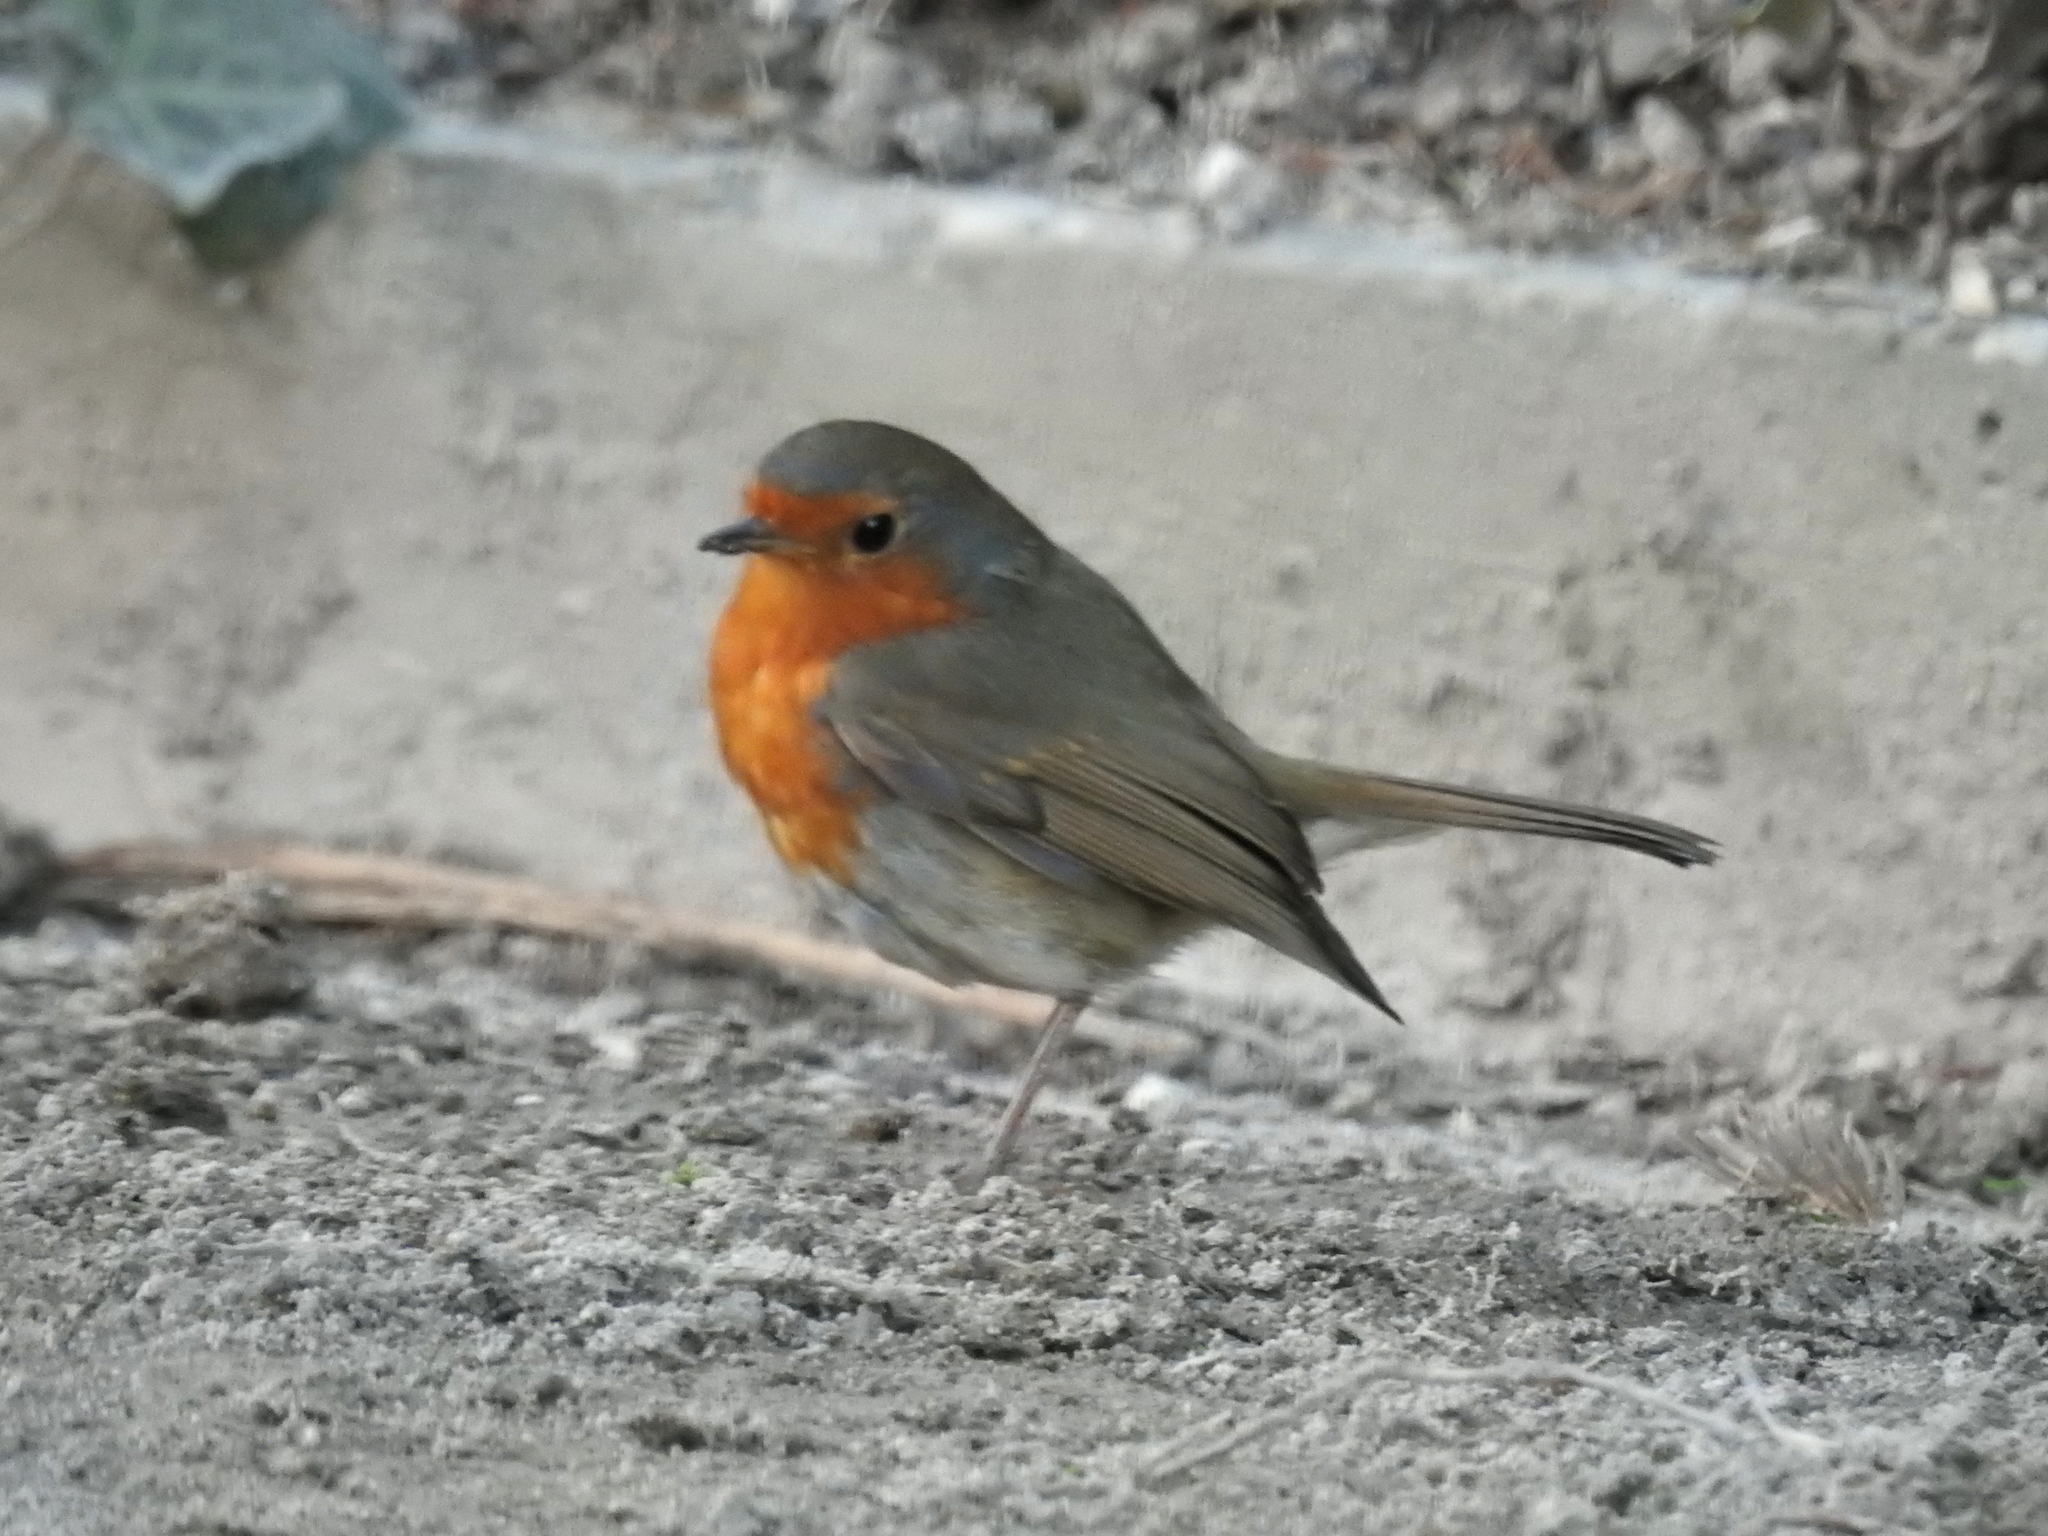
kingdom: Animalia
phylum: Chordata
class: Aves
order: Passeriformes
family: Muscicapidae
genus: Erithacus
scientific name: Erithacus rubecula
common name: European robin
